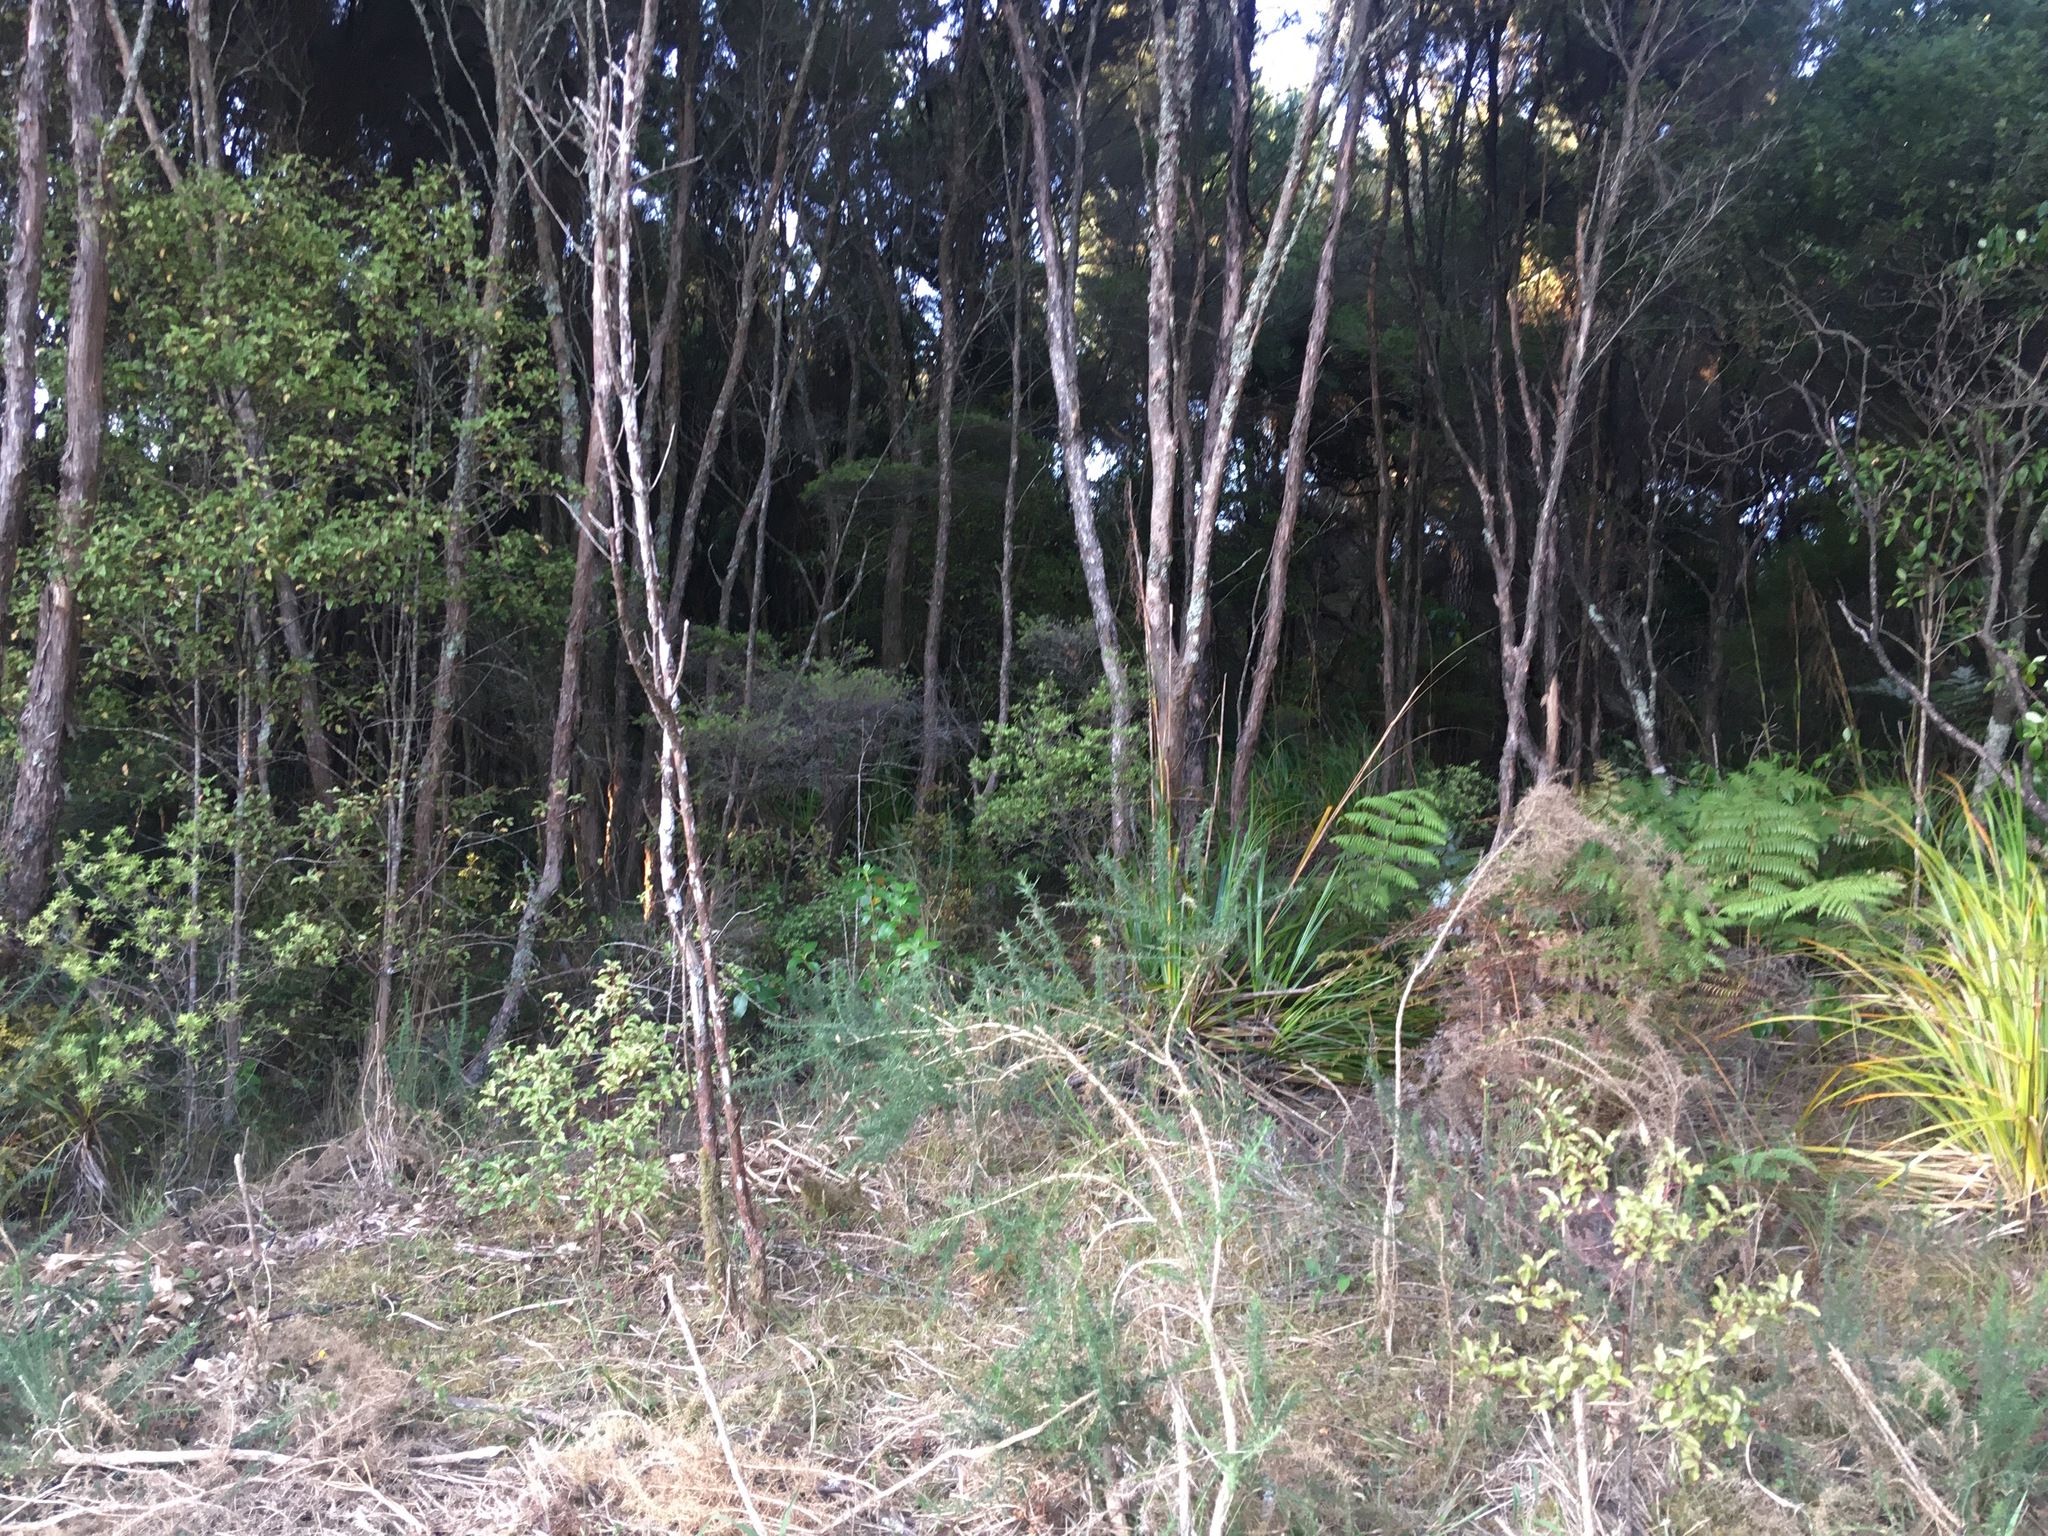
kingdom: Plantae
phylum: Tracheophyta
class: Magnoliopsida
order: Fabales
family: Fabaceae
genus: Ulex
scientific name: Ulex europaeus
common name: Common gorse
